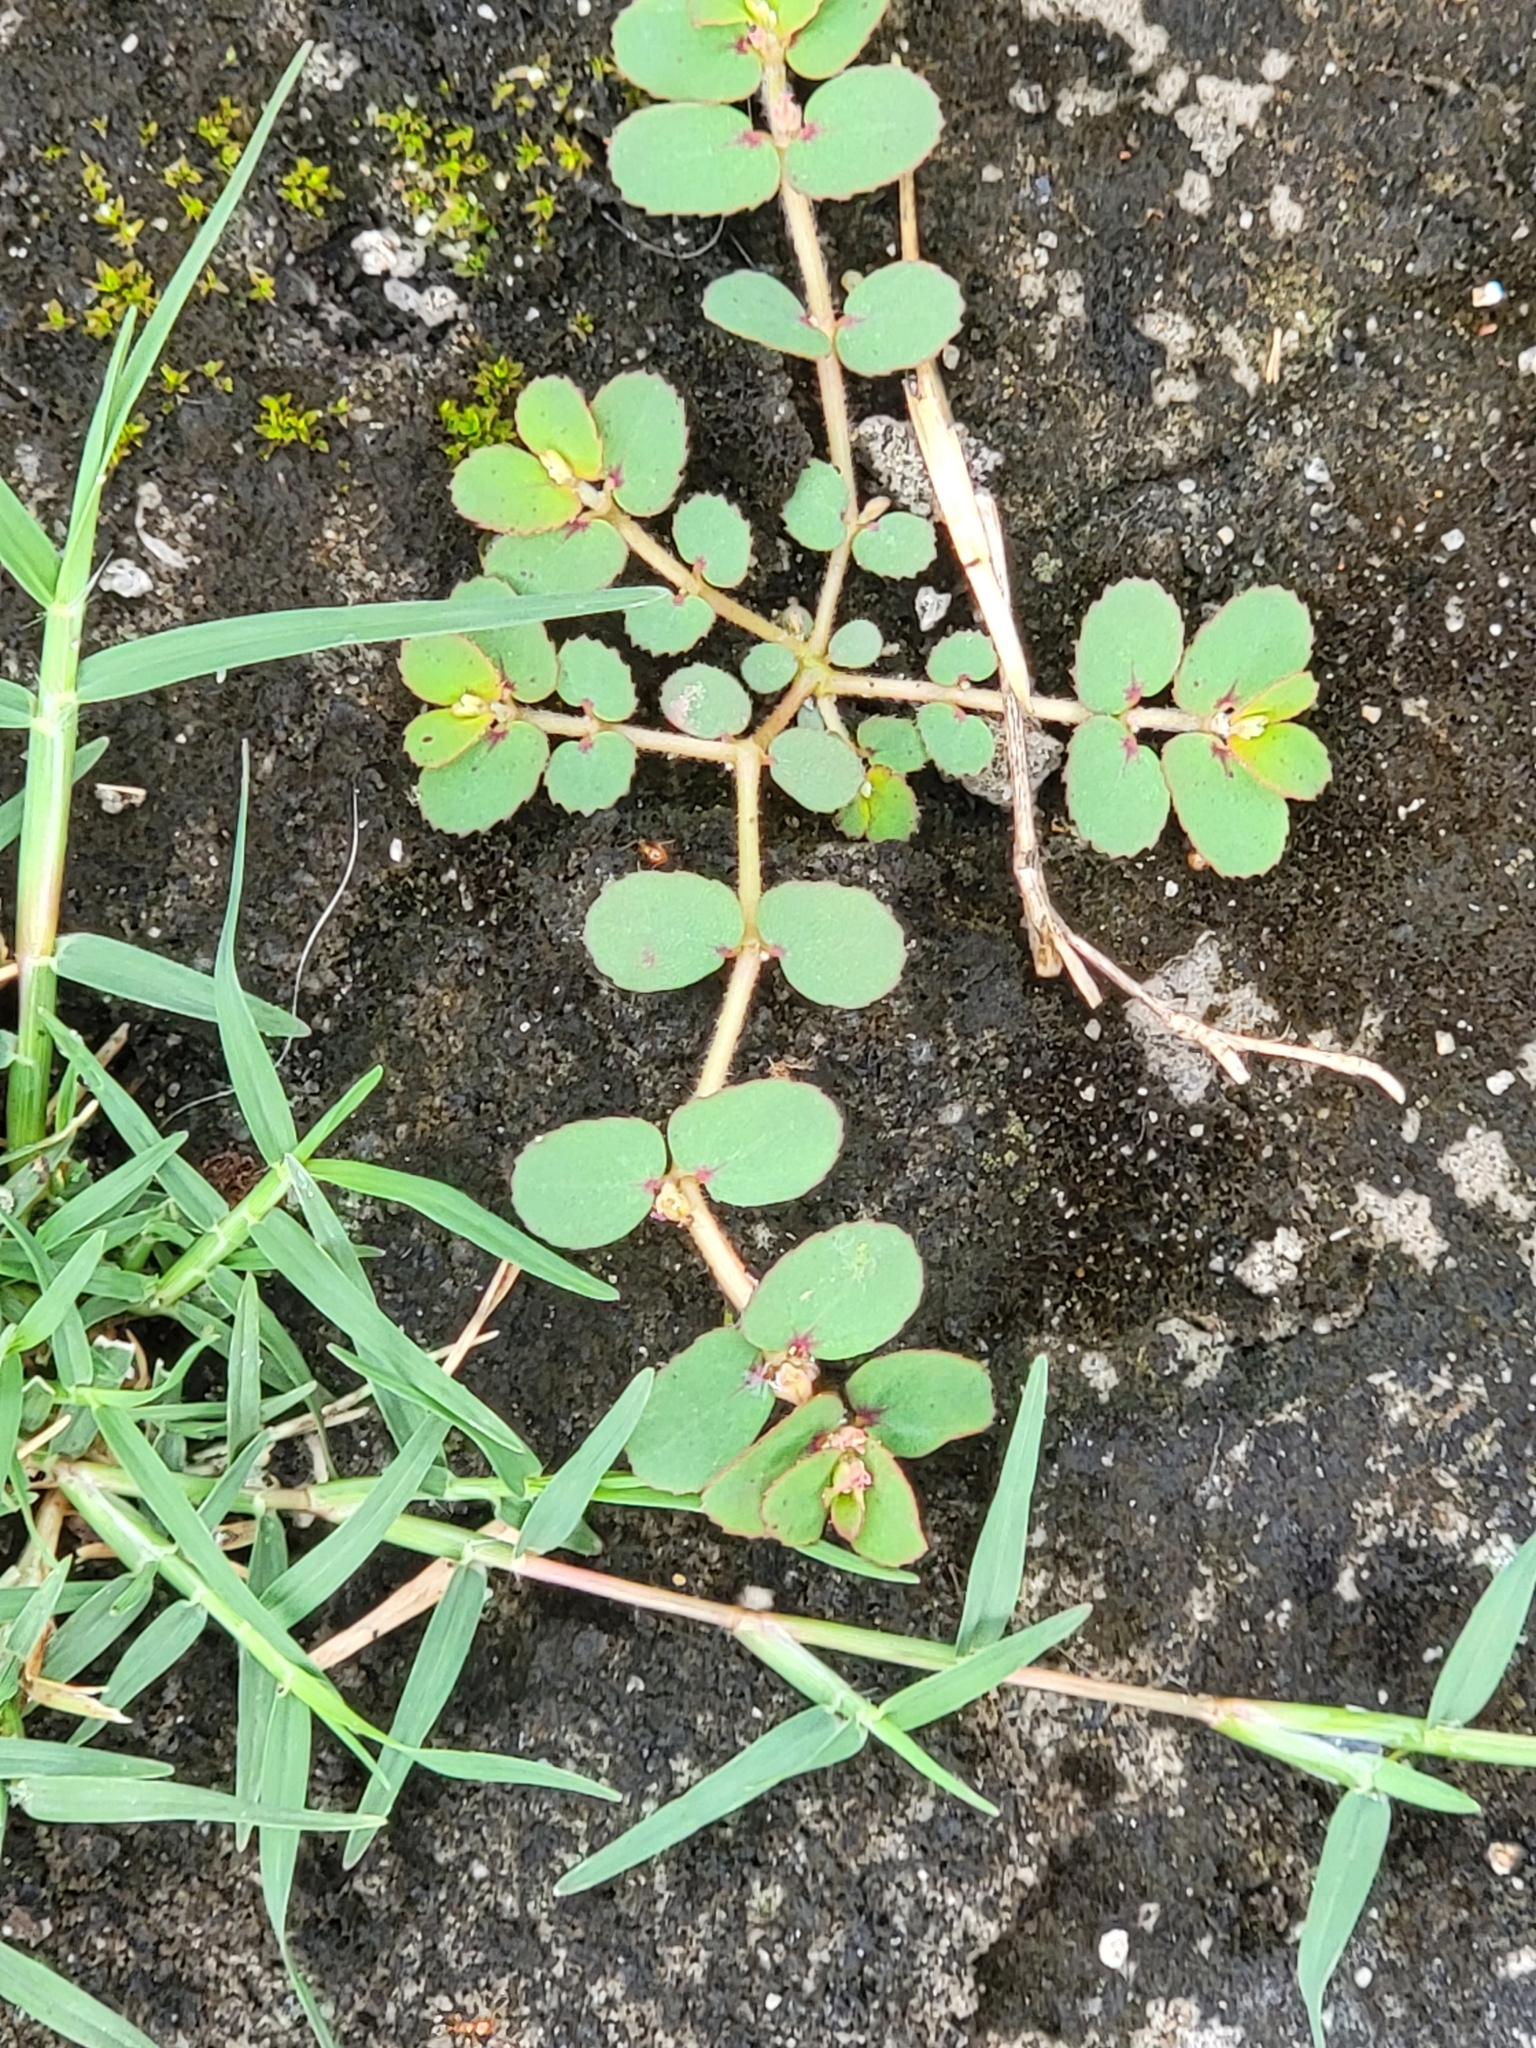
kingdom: Plantae
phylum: Tracheophyta
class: Magnoliopsida
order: Malpighiales
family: Euphorbiaceae
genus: Euphorbia
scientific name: Euphorbia thymifolia
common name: Gulf sandmat
